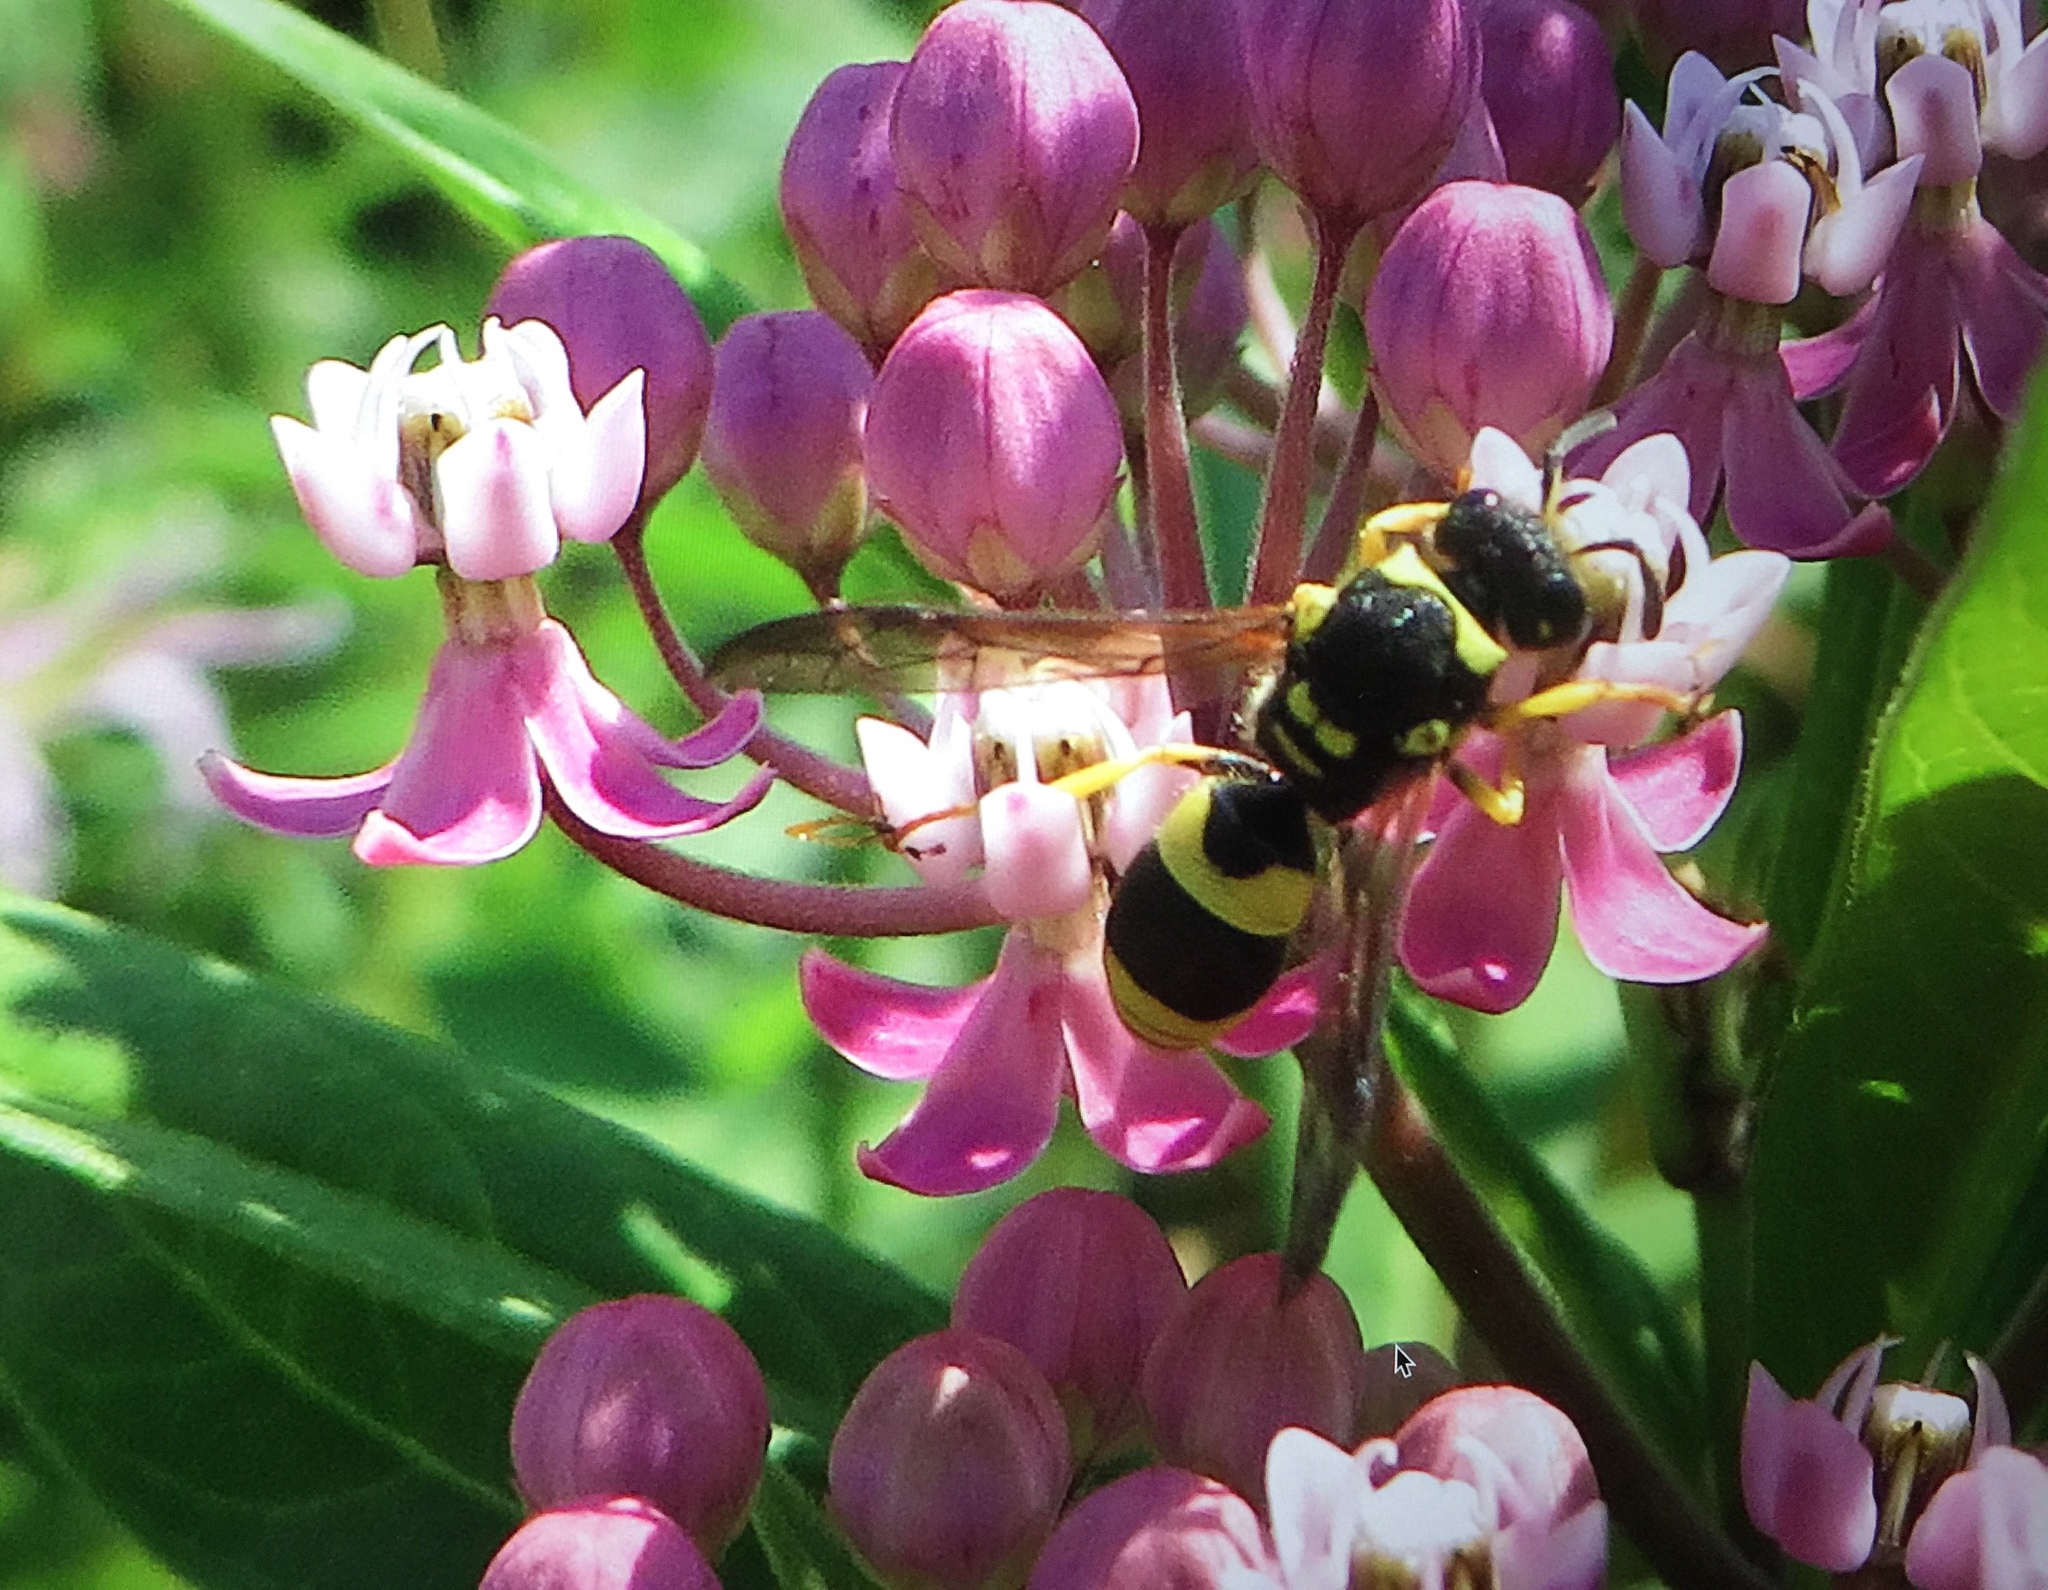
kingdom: Animalia
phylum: Arthropoda
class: Insecta
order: Hymenoptera
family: Vespidae
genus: Ancistrocerus
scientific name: Ancistrocerus gazella
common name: European tube wasp
